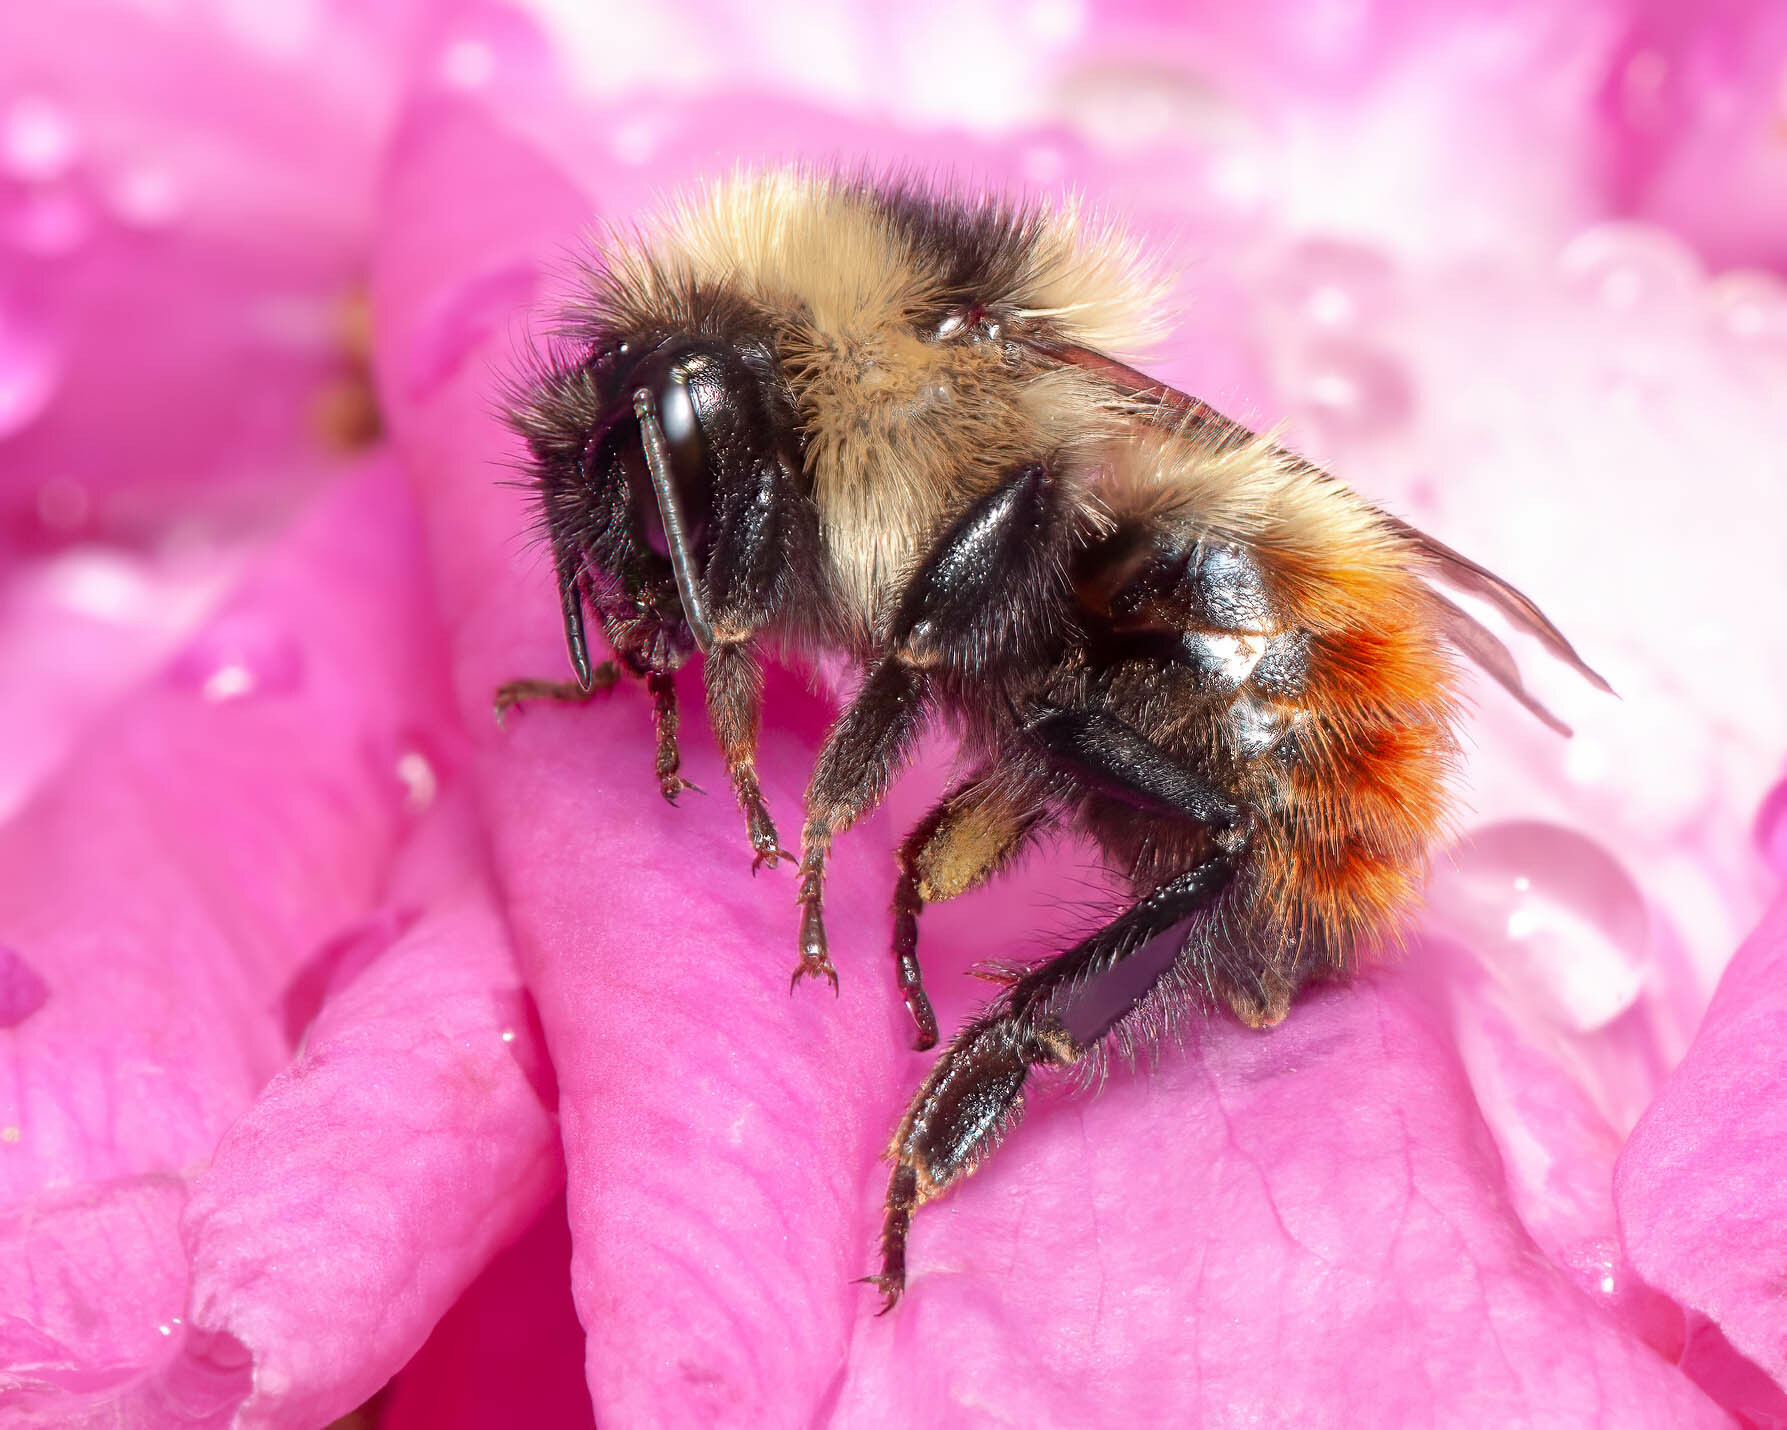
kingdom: Animalia
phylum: Arthropoda
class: Insecta
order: Hymenoptera
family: Apidae
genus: Bombus
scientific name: Bombus rufocinctus
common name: Red-belted bumble bee
